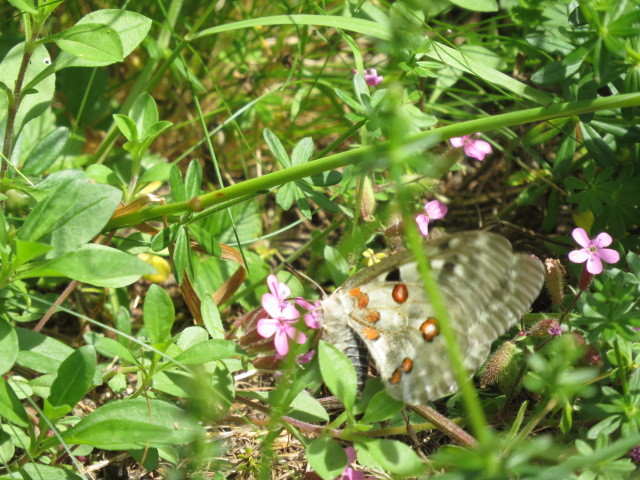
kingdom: Animalia
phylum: Arthropoda
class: Insecta
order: Lepidoptera
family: Papilionidae
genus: Parnassius
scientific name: Parnassius apollo
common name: Apollo
